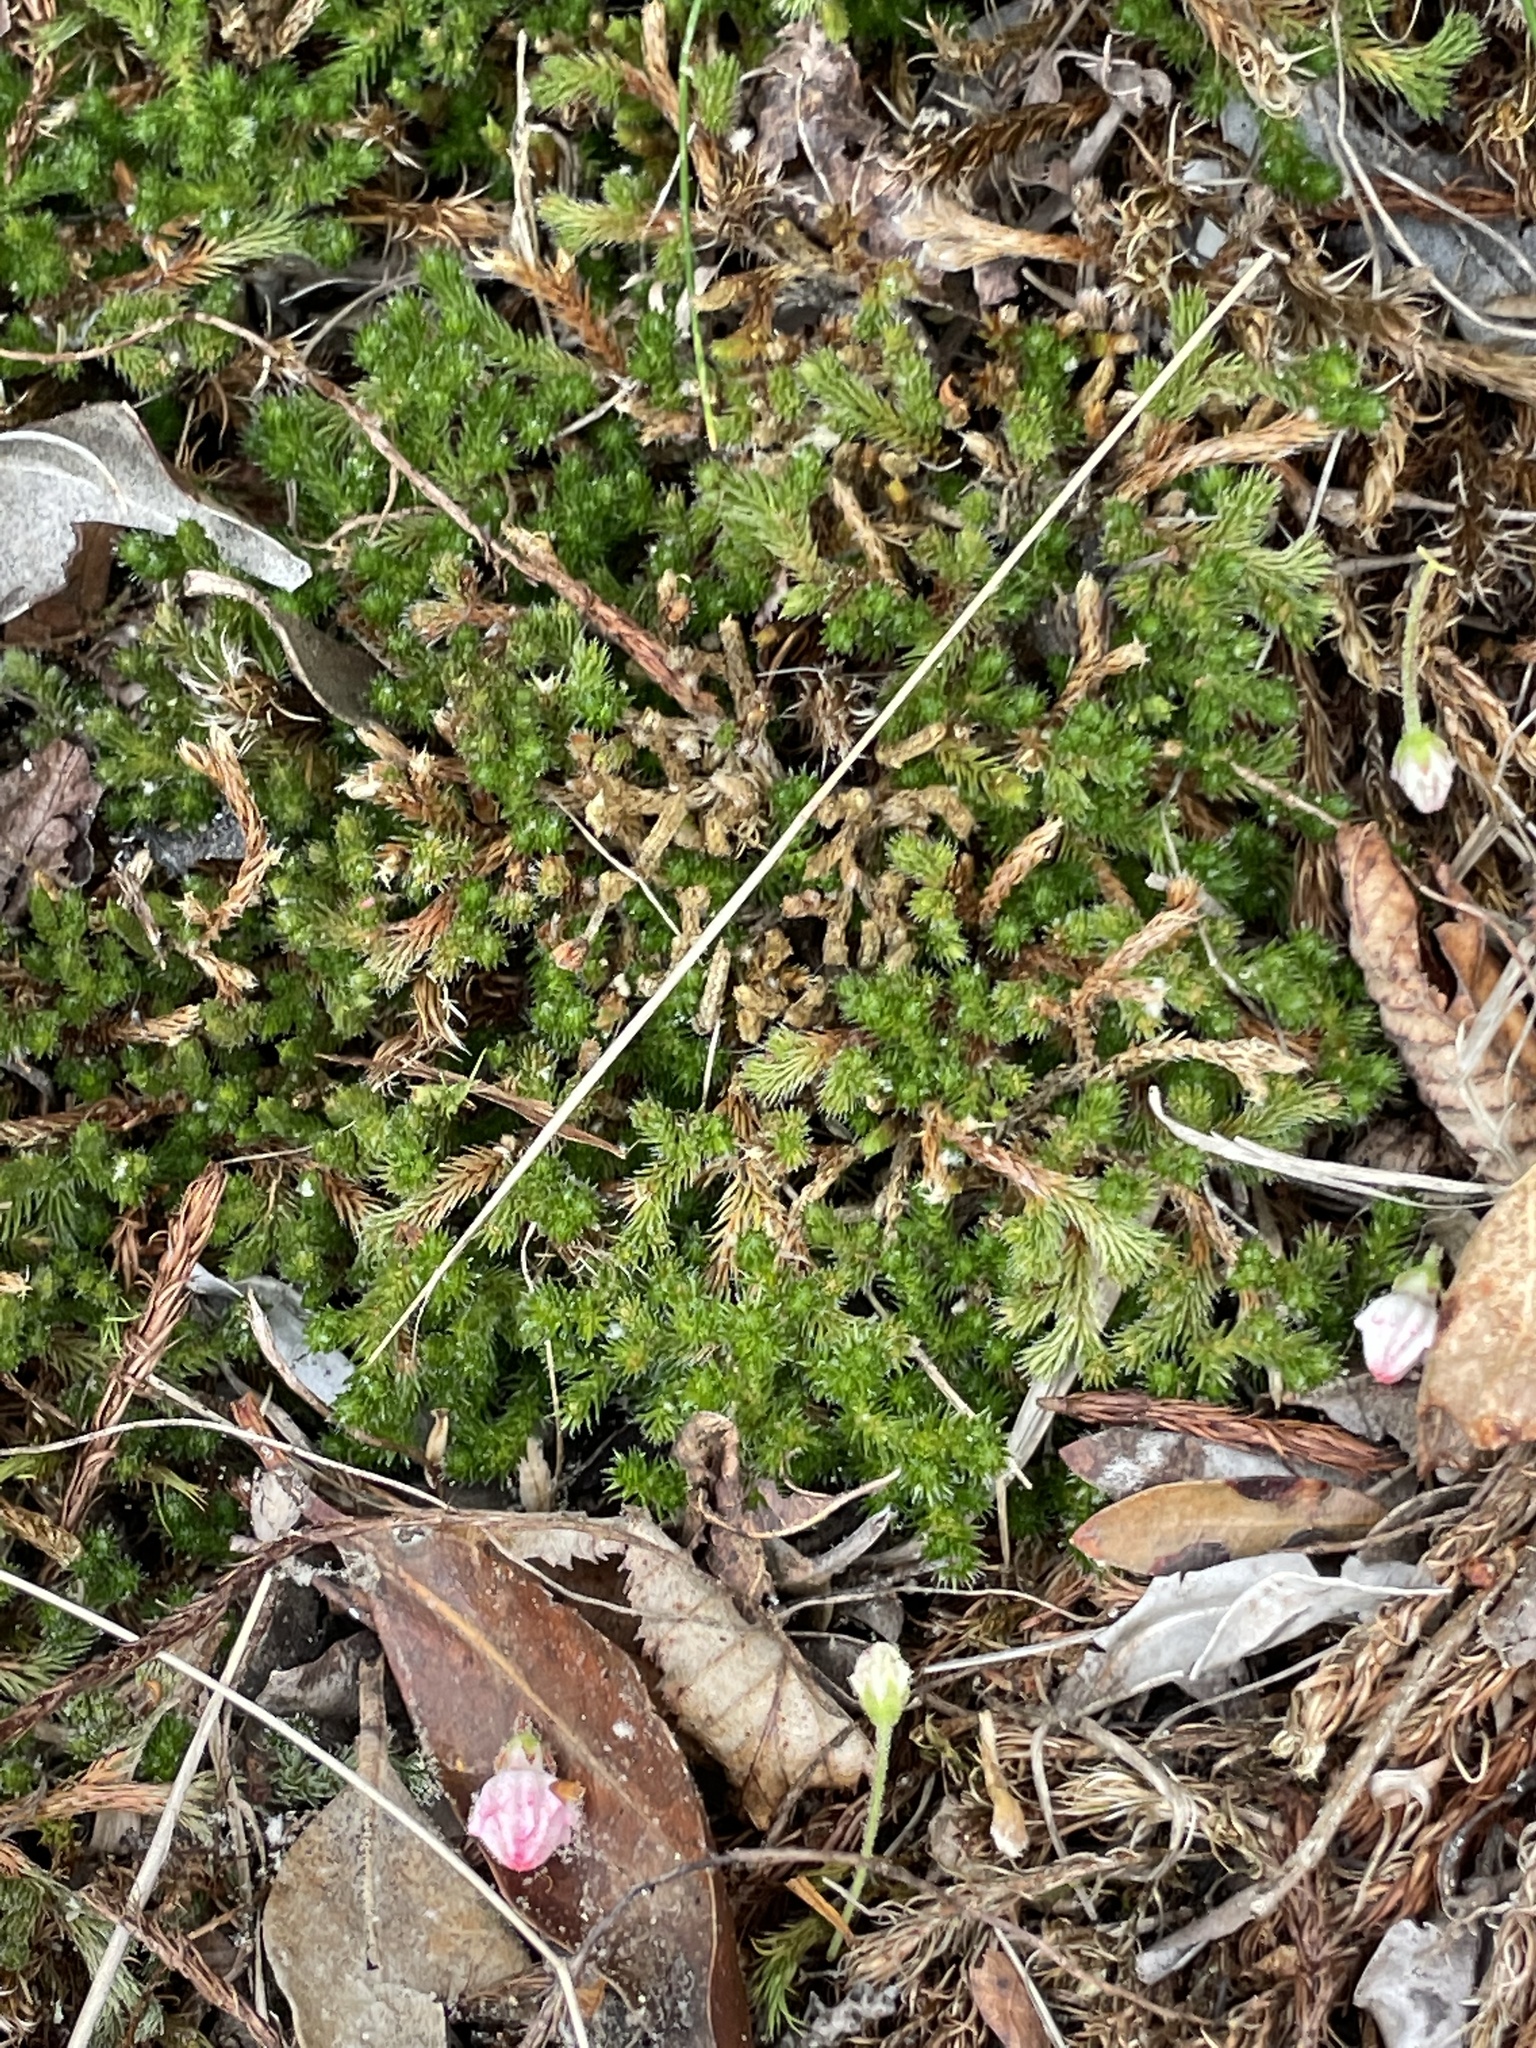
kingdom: Plantae
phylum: Tracheophyta
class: Lycopodiopsida
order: Selaginellales
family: Selaginellaceae
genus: Selaginella
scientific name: Selaginella rupestris
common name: Dwarf spikemoss
